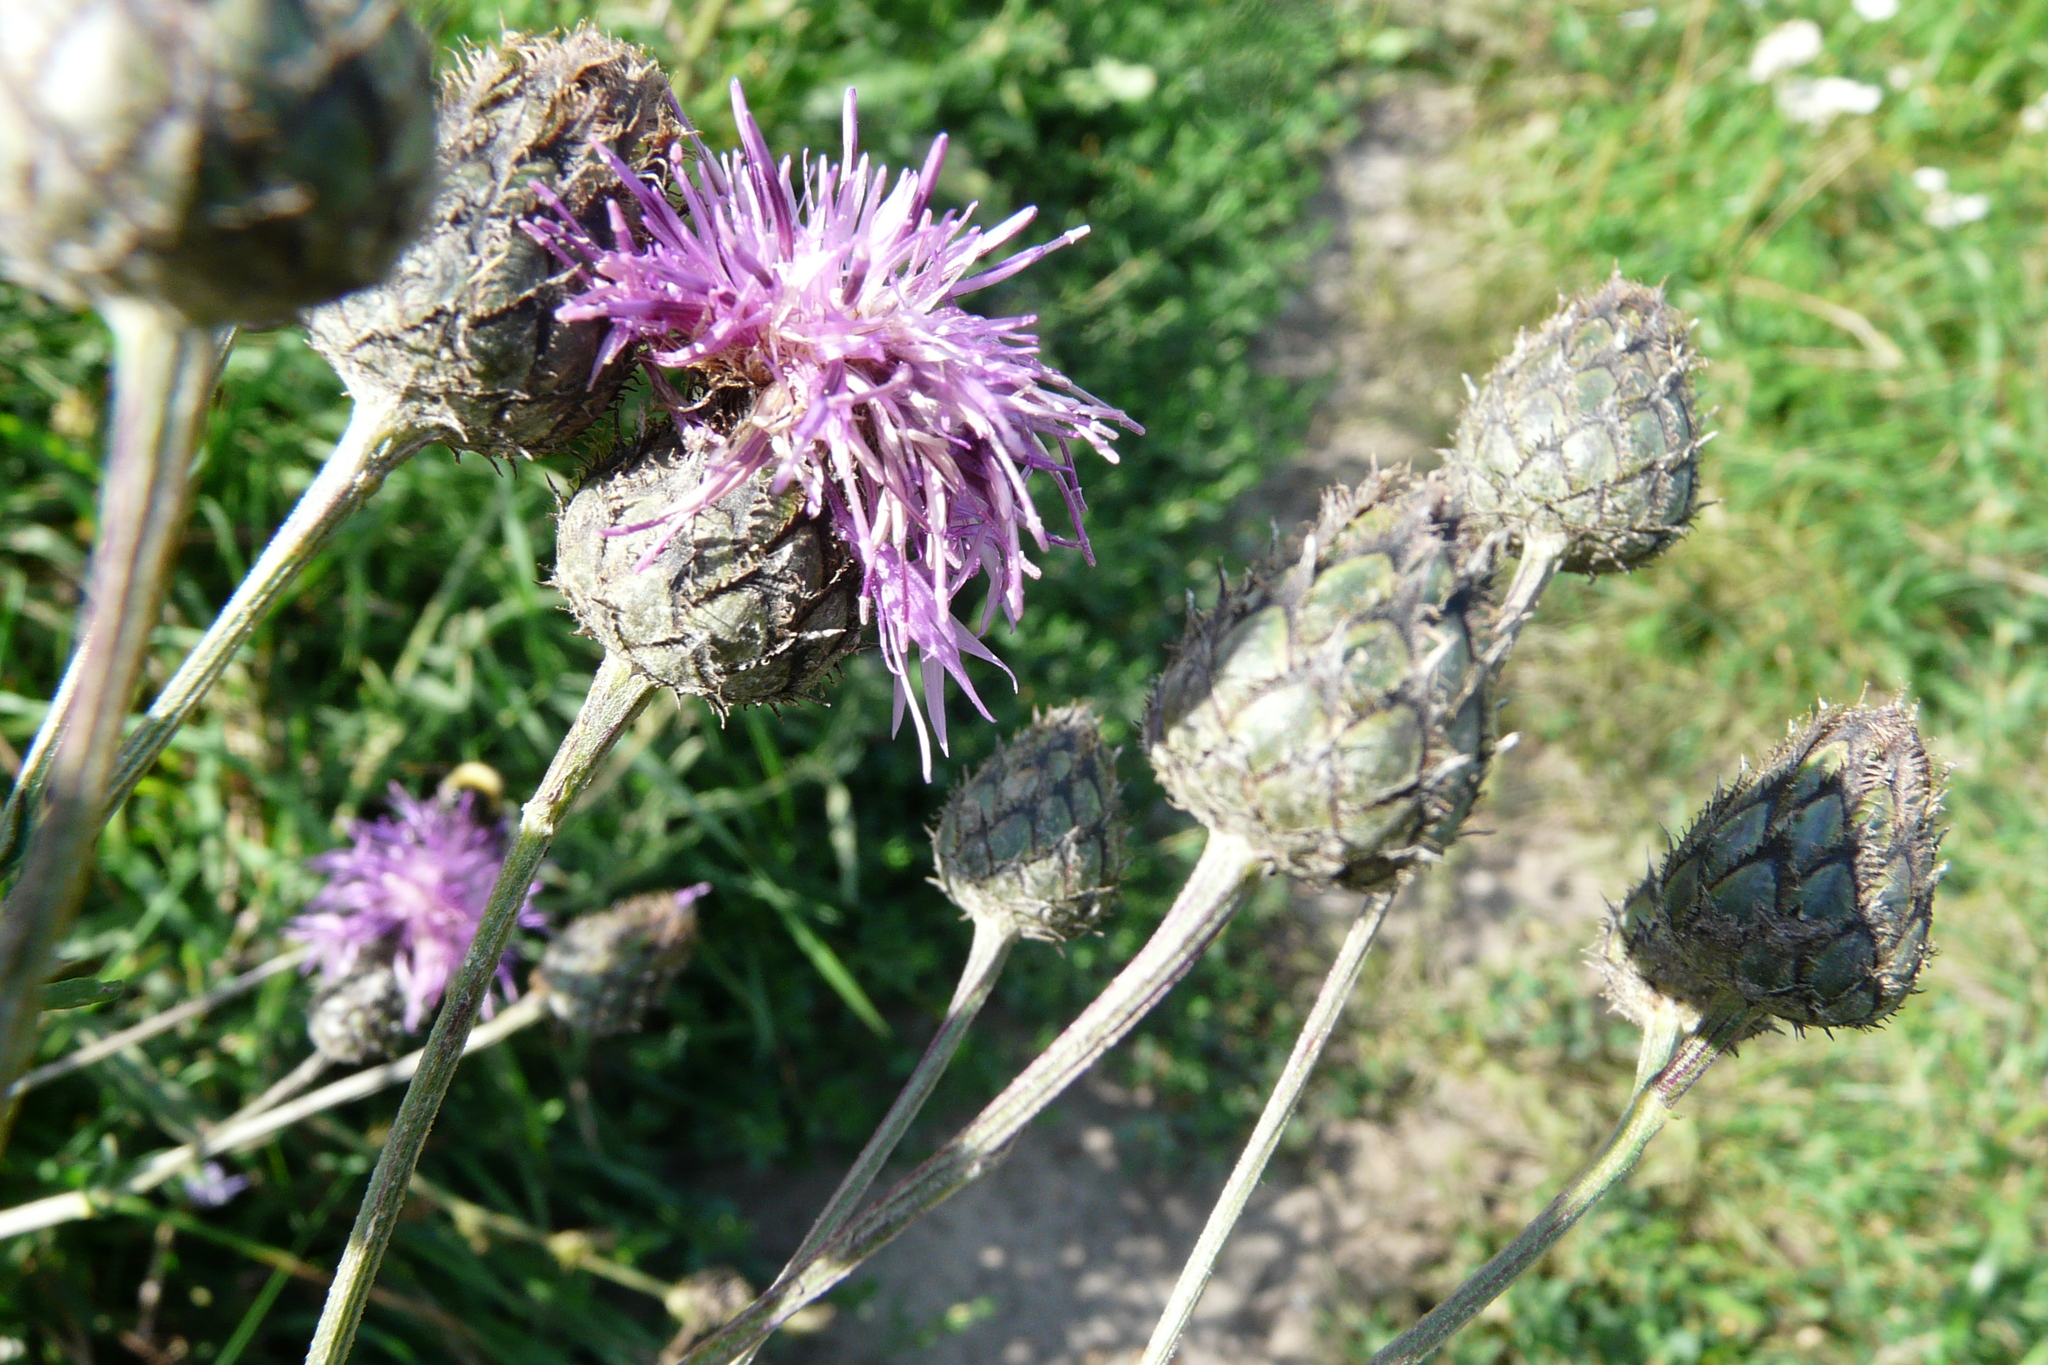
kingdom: Plantae
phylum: Tracheophyta
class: Magnoliopsida
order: Asterales
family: Asteraceae
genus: Centaurea
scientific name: Centaurea scabiosa
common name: Greater knapweed
